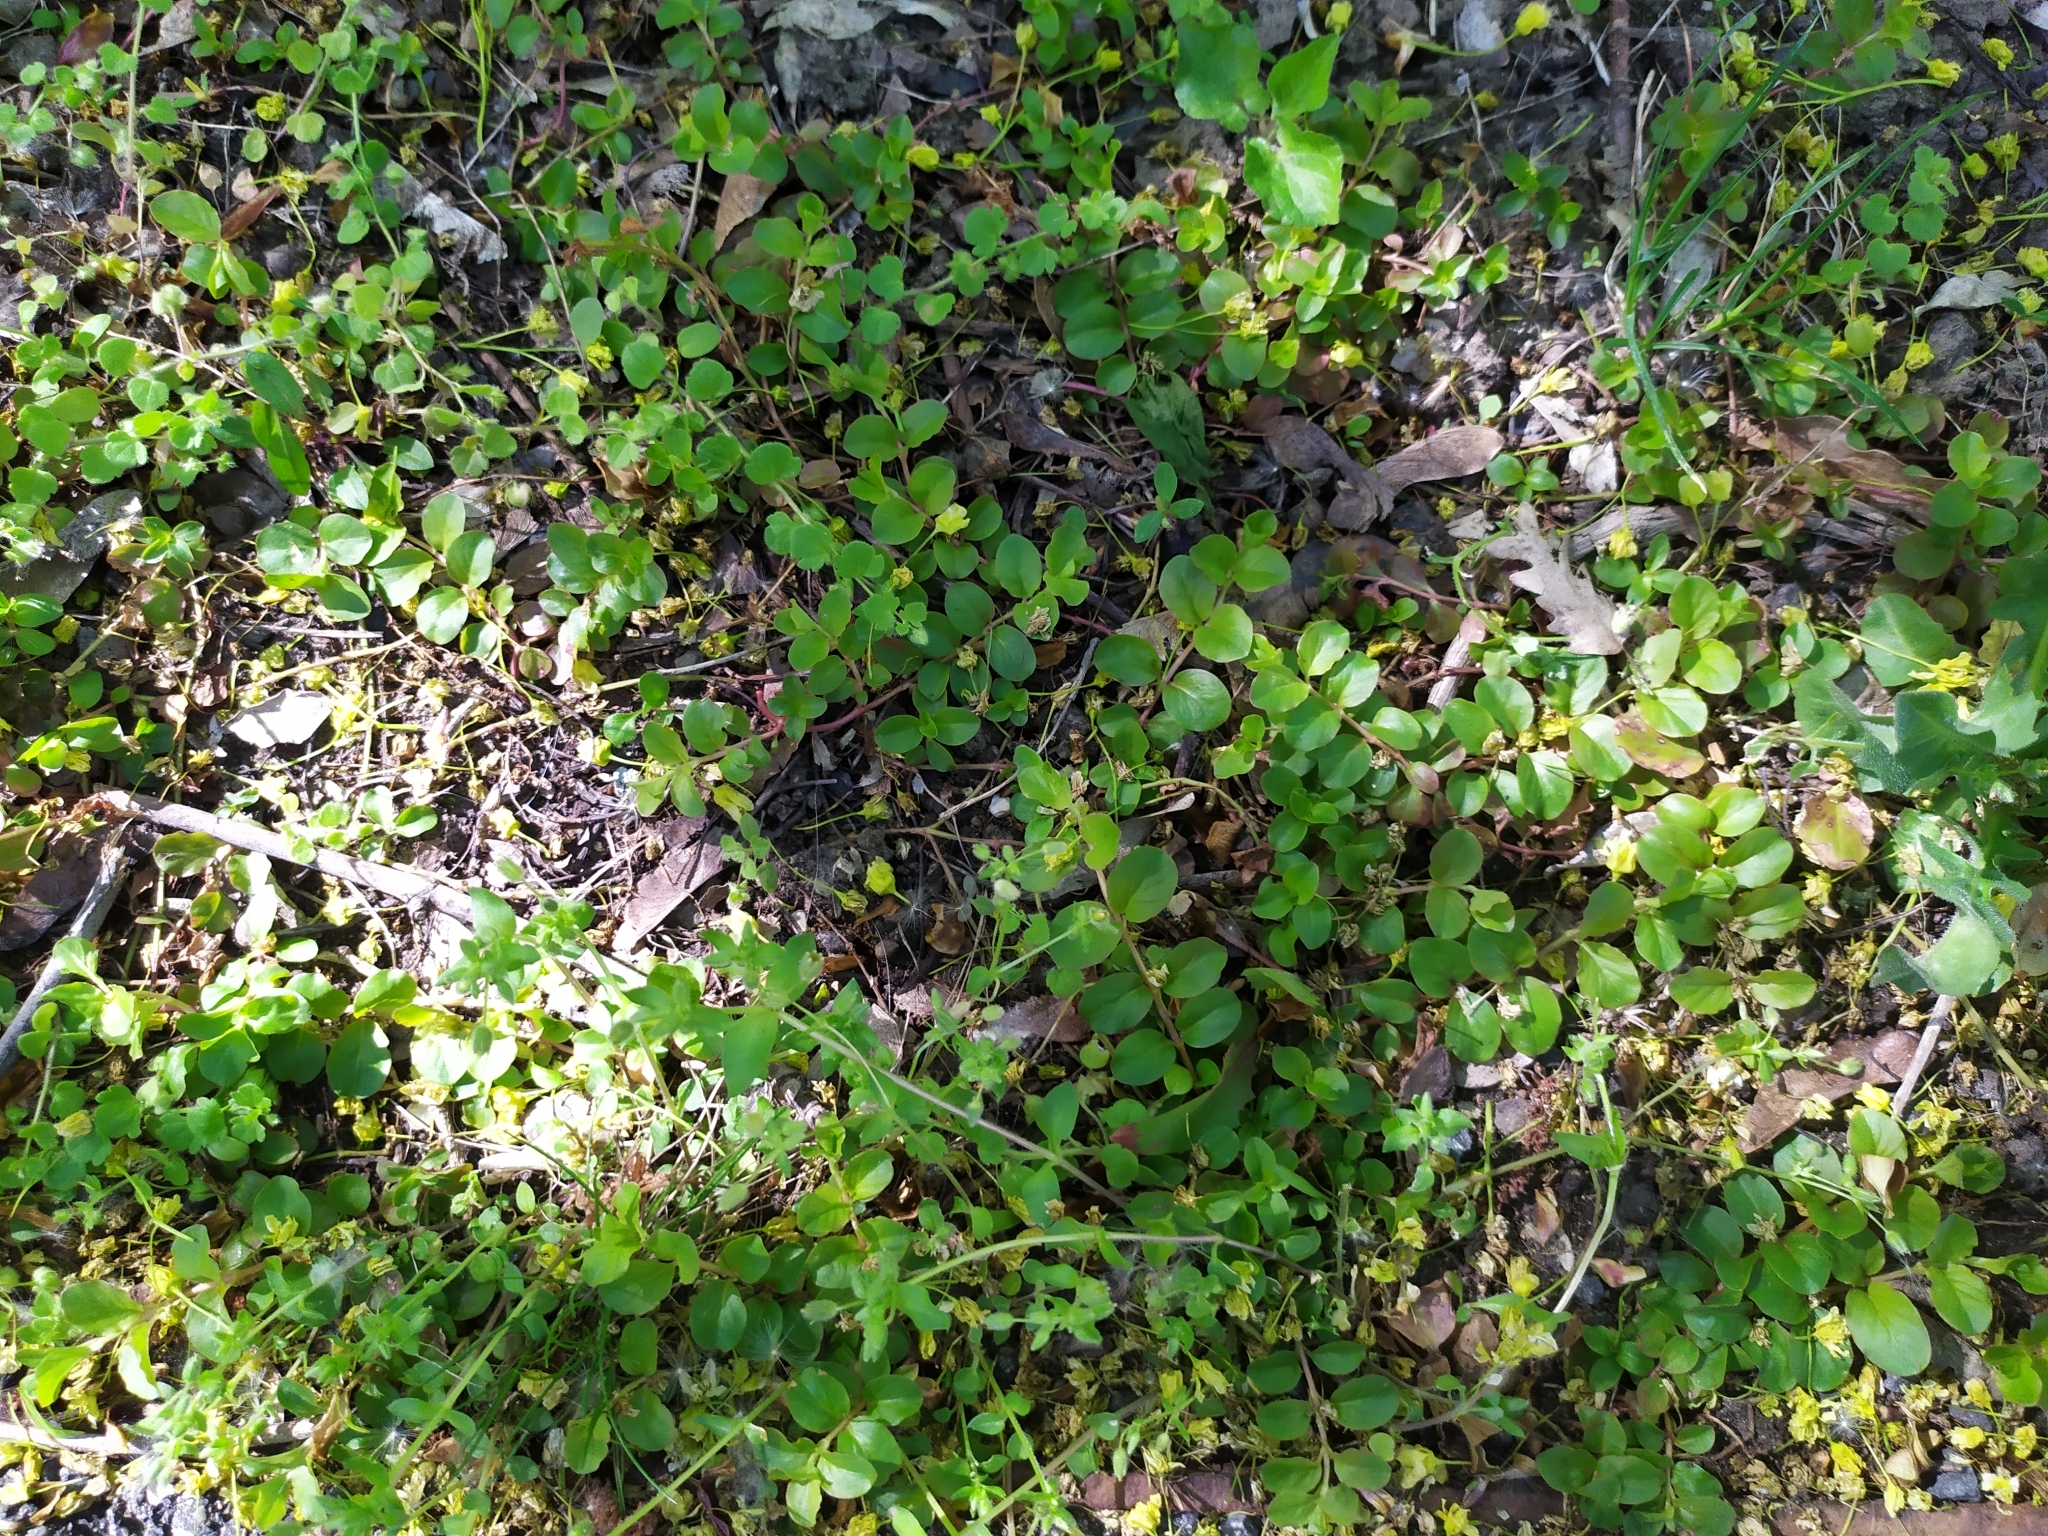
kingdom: Plantae
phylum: Tracheophyta
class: Magnoliopsida
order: Ericales
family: Primulaceae
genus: Lysimachia
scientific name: Lysimachia nummularia
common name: Moneywort
